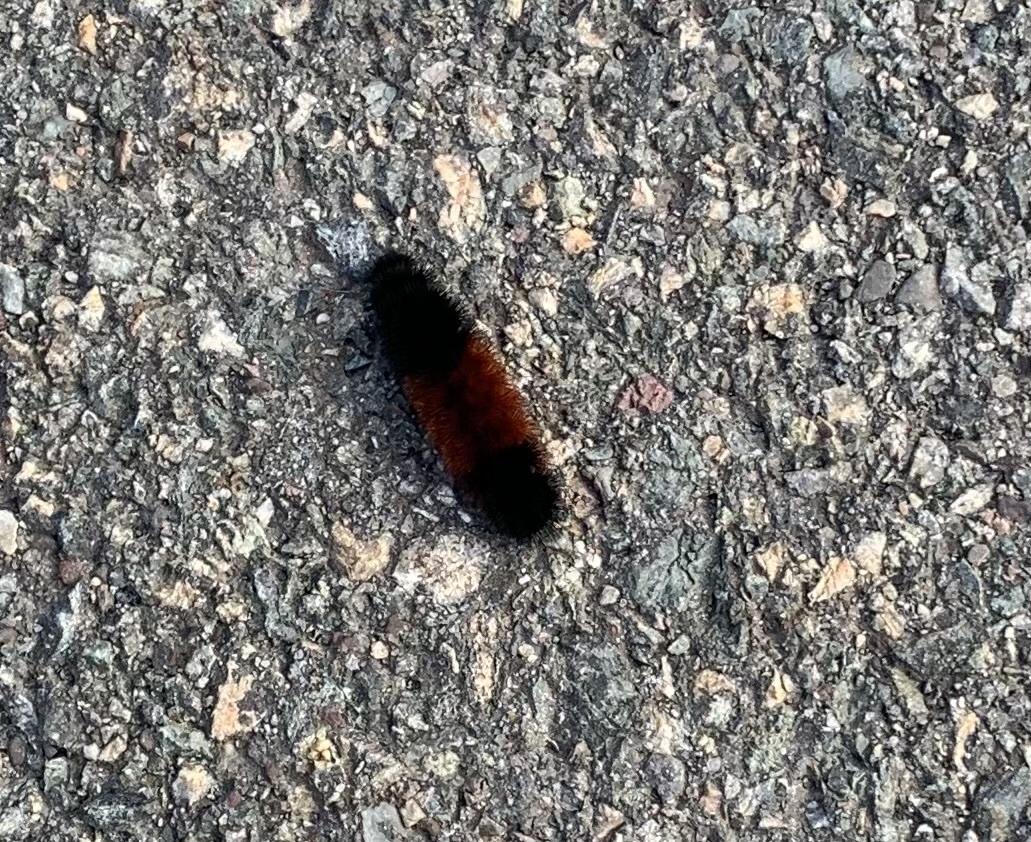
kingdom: Animalia
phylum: Arthropoda
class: Insecta
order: Lepidoptera
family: Erebidae
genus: Pyrrharctia
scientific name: Pyrrharctia isabella
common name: Isabella tiger moth
